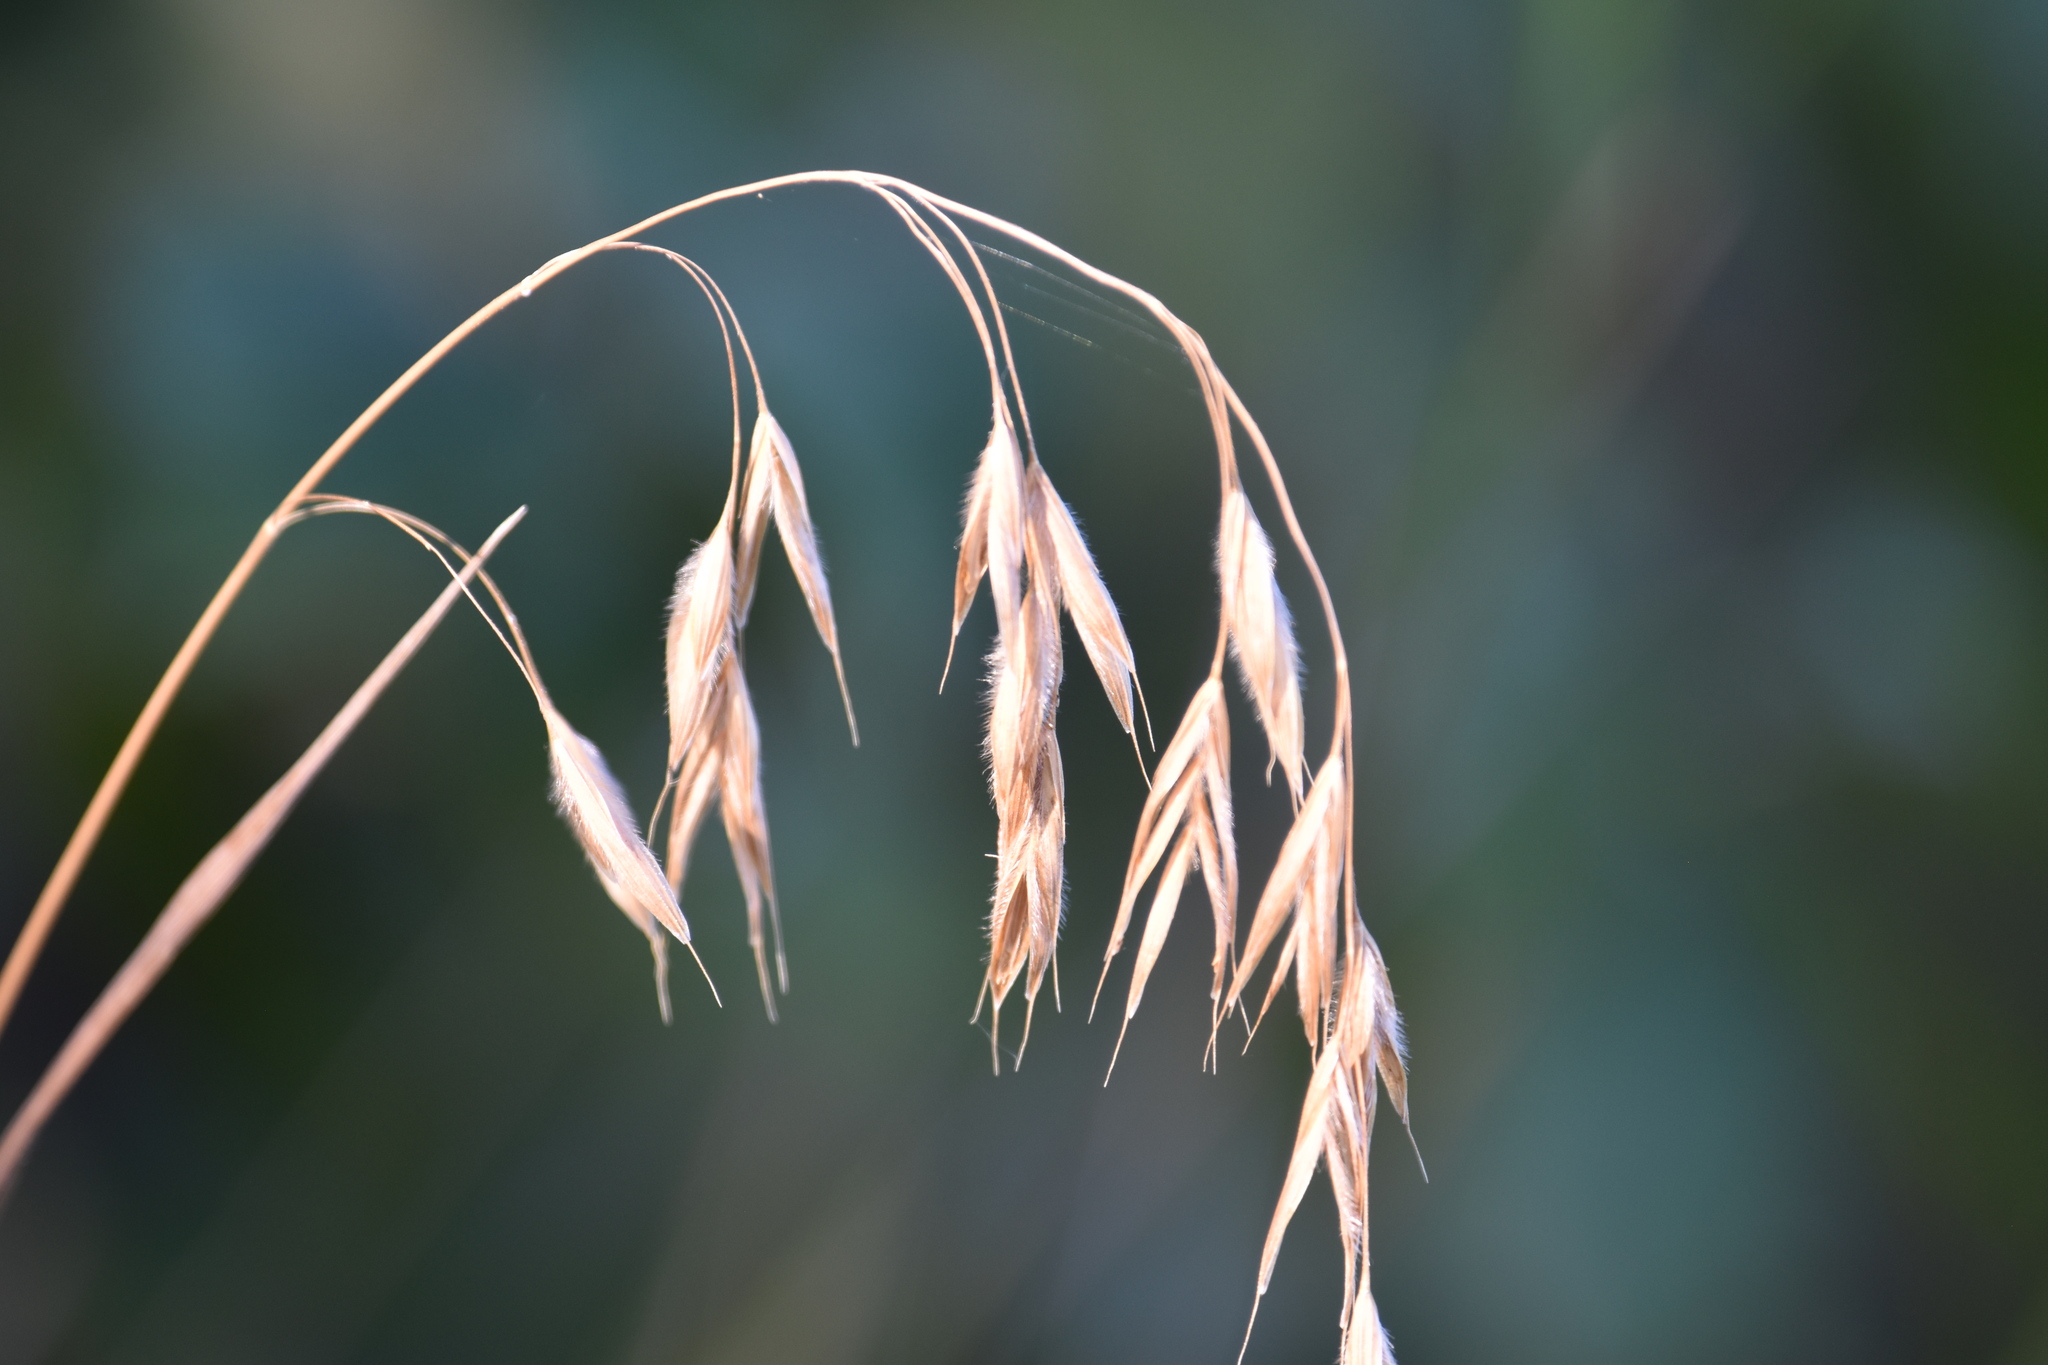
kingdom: Plantae
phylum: Tracheophyta
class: Liliopsida
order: Poales
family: Poaceae
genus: Bromus
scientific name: Bromus ciliatus
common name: Fringe brome
